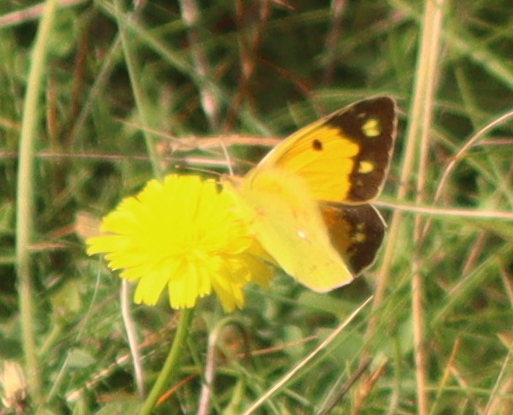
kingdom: Animalia
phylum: Arthropoda
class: Insecta
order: Lepidoptera
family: Pieridae
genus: Colias
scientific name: Colias croceus
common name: Clouded yellow
